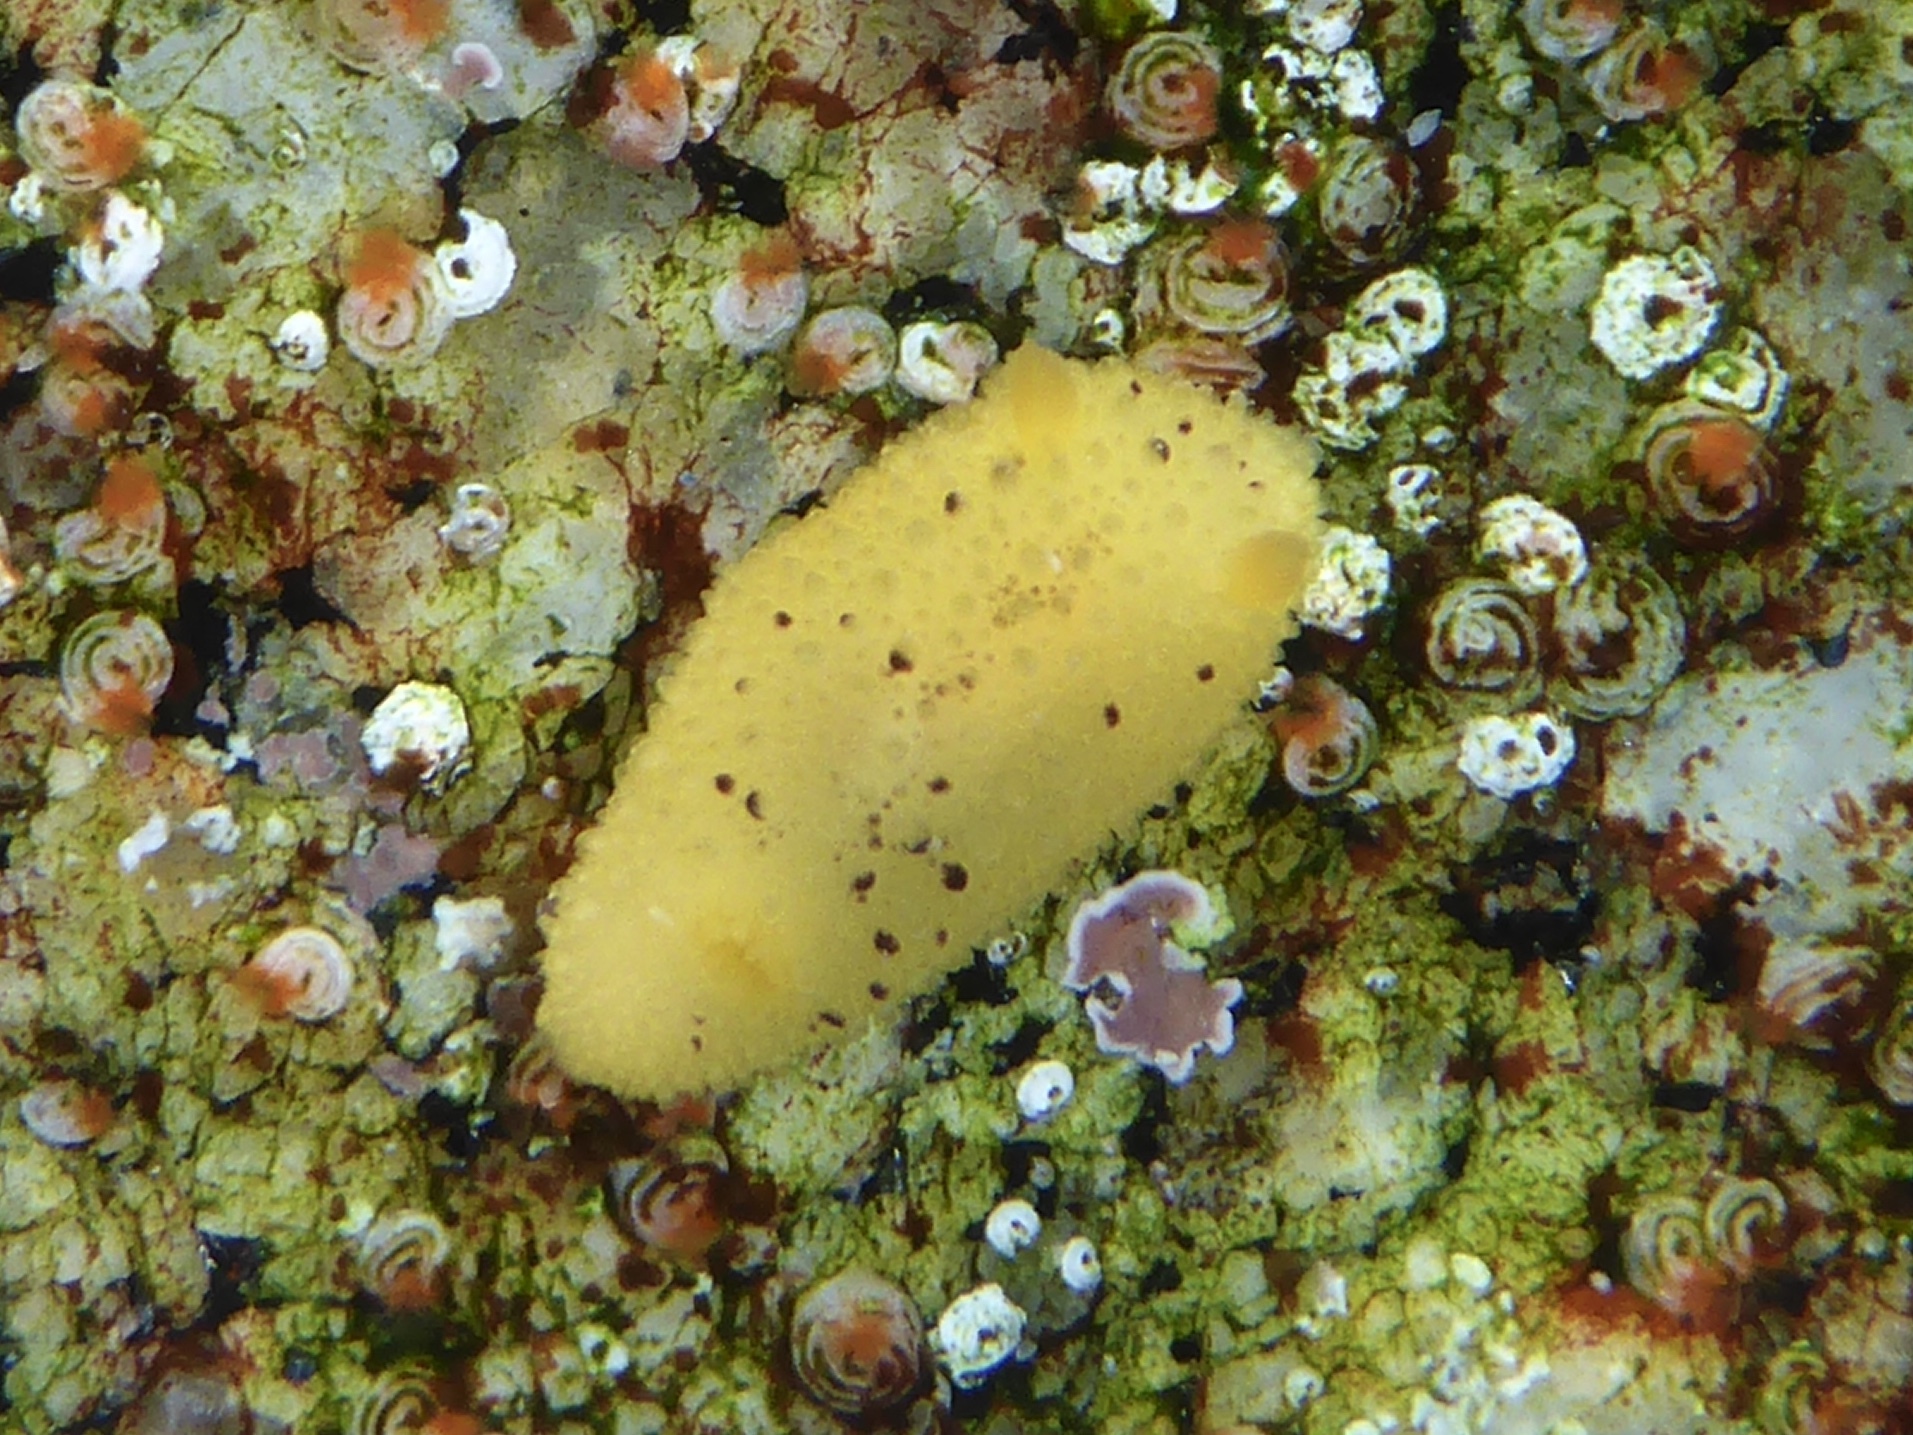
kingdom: Animalia
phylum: Mollusca
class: Gastropoda
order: Nudibranchia
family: Dorididae
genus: Doris
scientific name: Doris montereyensis
